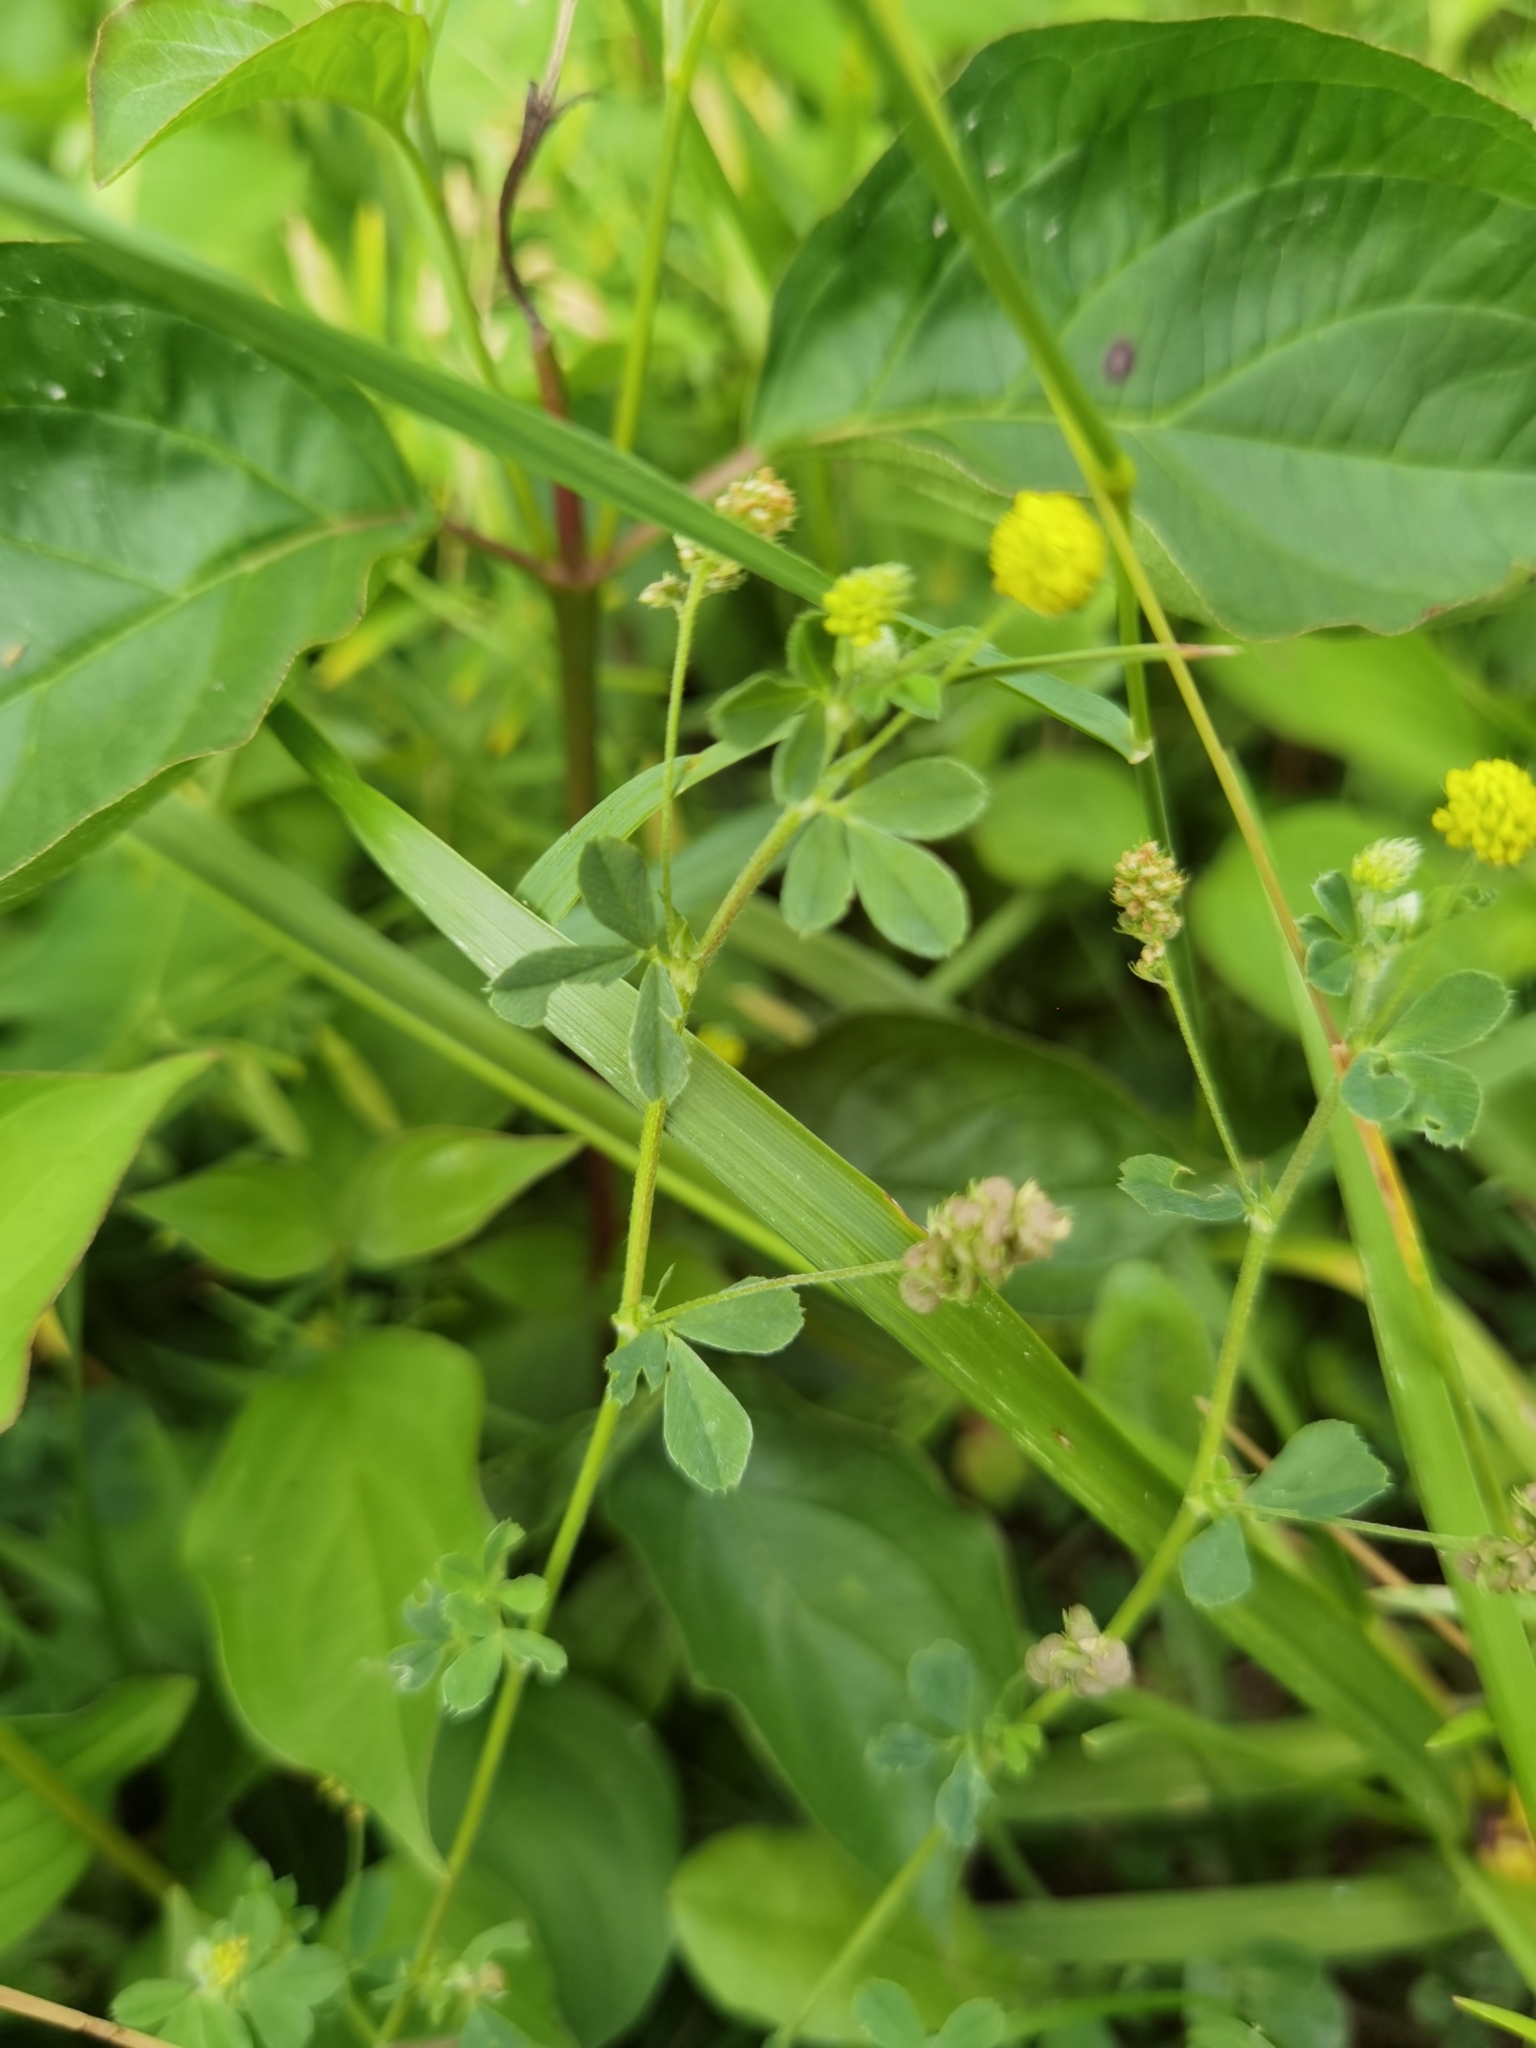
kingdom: Plantae
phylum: Tracheophyta
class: Magnoliopsida
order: Fabales
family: Fabaceae
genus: Medicago
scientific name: Medicago lupulina
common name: Black medick
